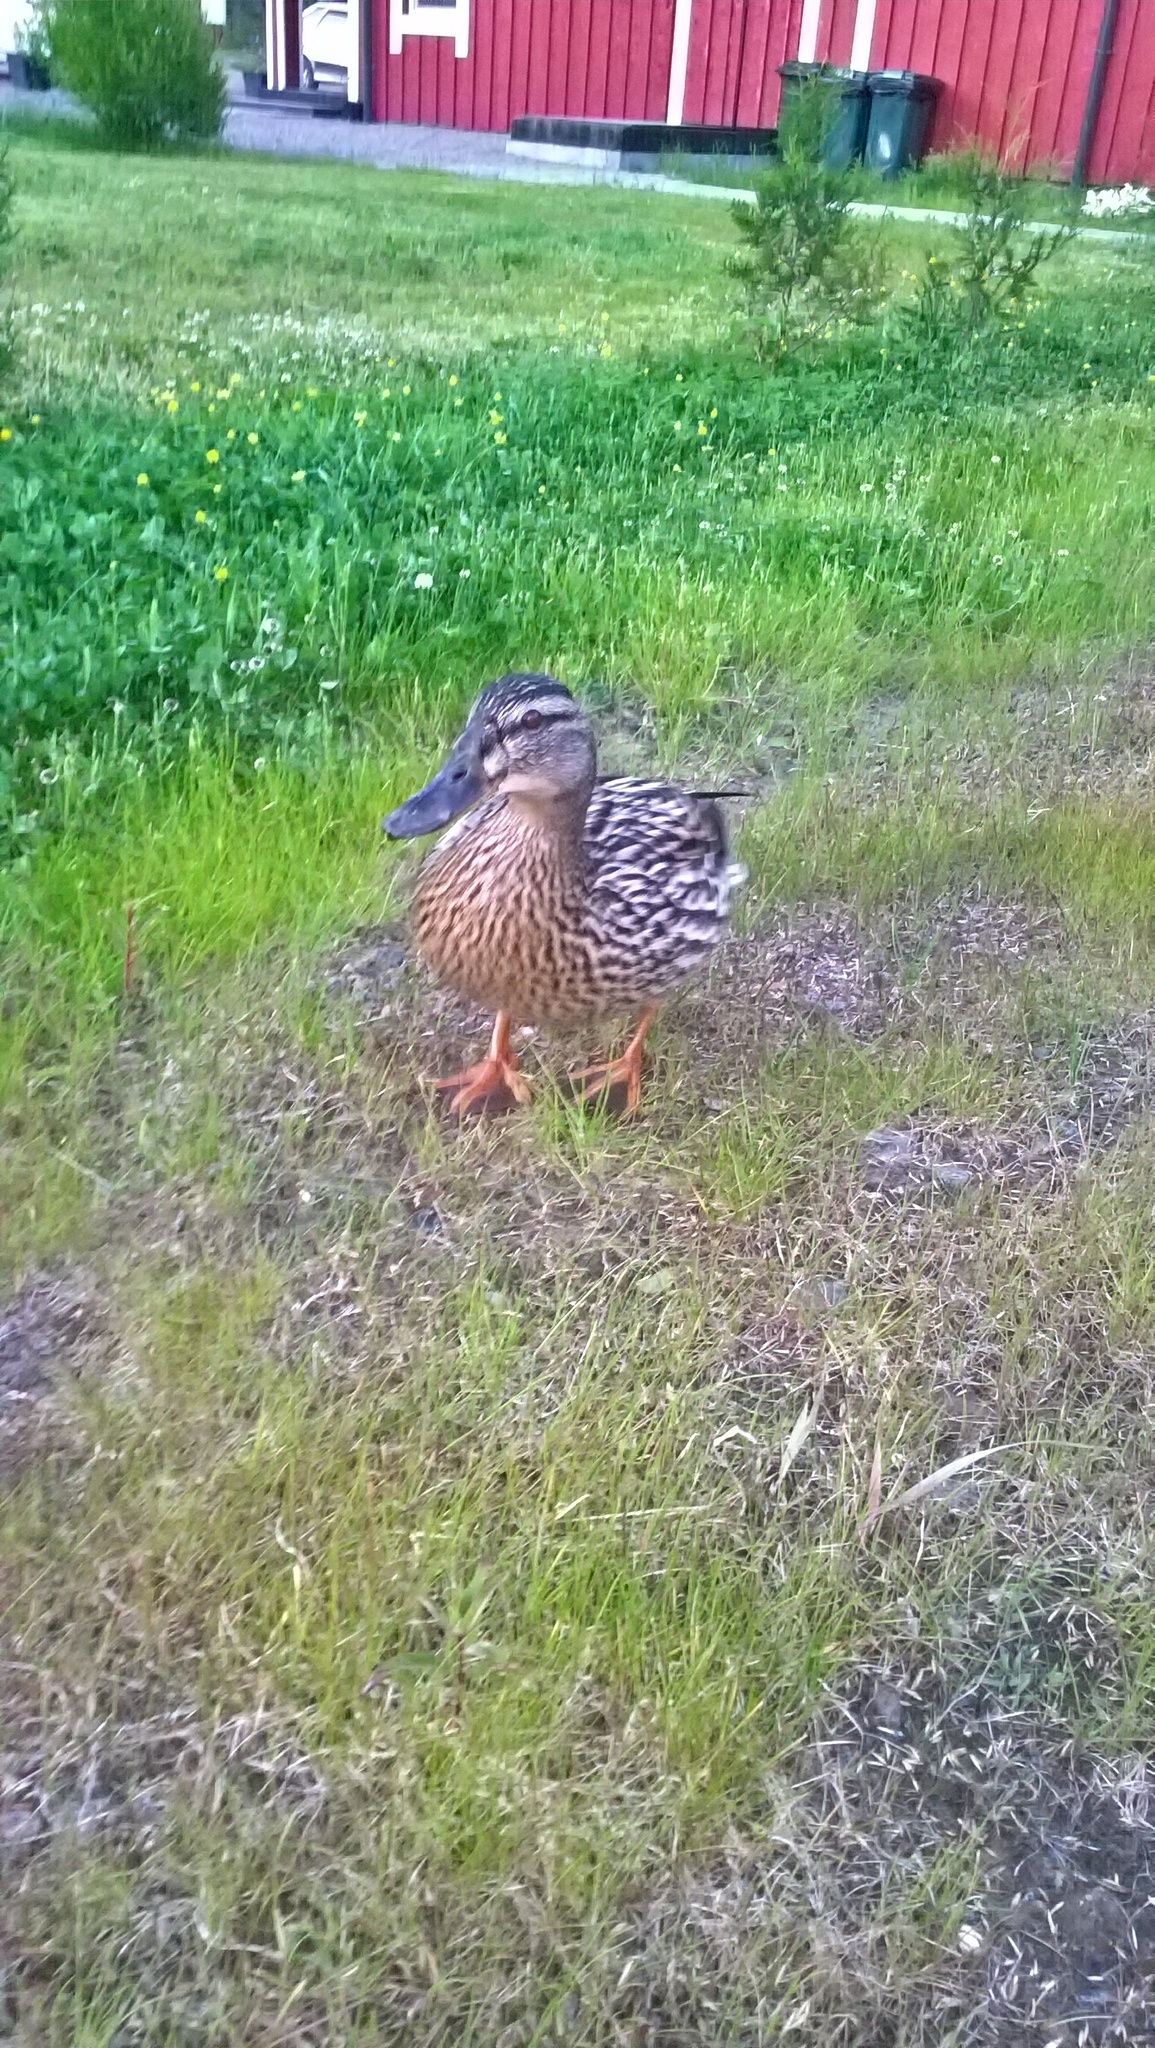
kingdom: Animalia
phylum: Chordata
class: Aves
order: Anseriformes
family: Anatidae
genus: Anas
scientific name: Anas platyrhynchos
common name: Mallard
